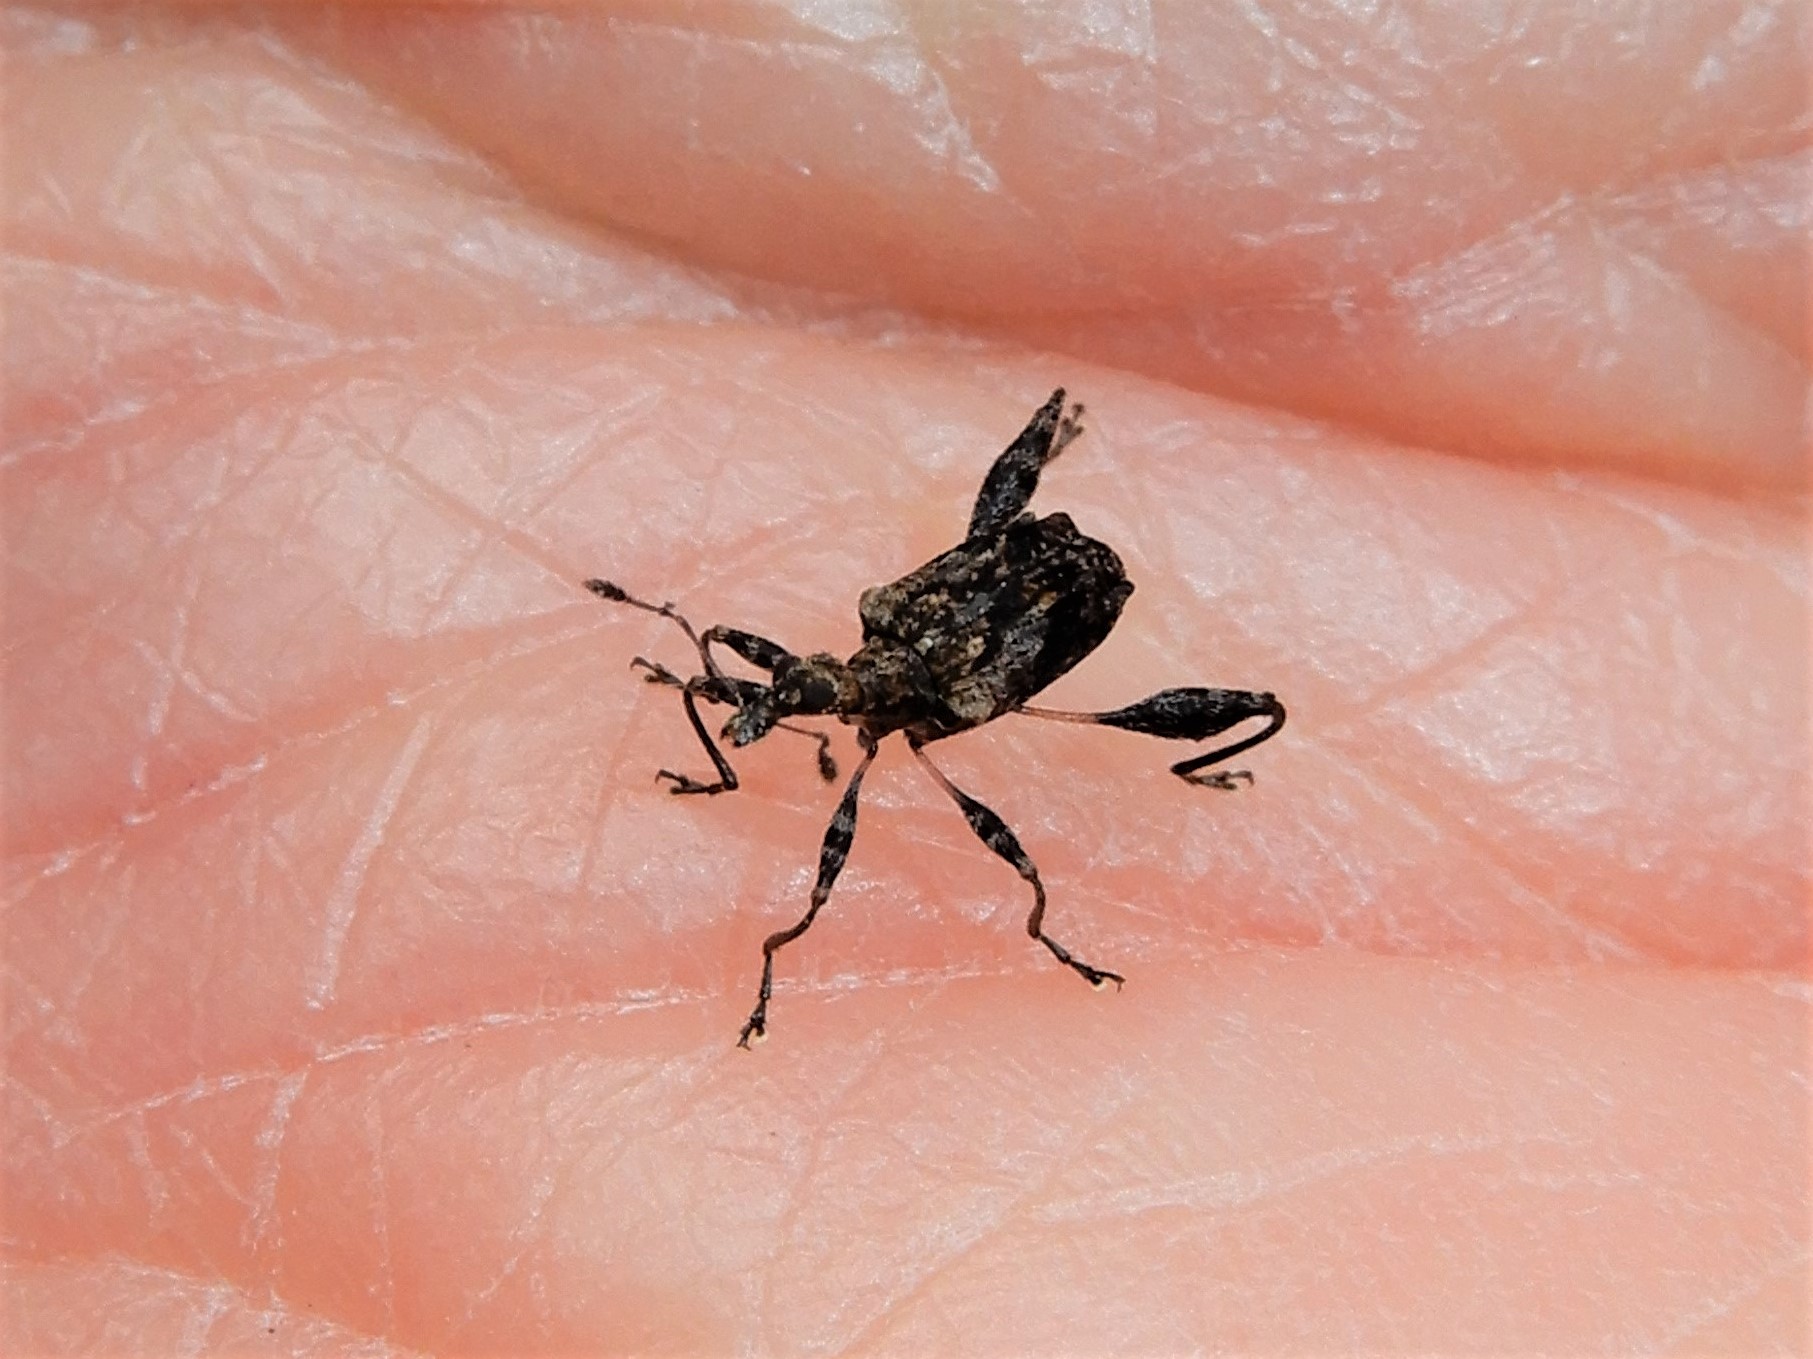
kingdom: Animalia
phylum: Arthropoda
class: Insecta
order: Coleoptera
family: Curculionidae
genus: Stephanorhynchus
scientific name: Stephanorhynchus lawsoni
